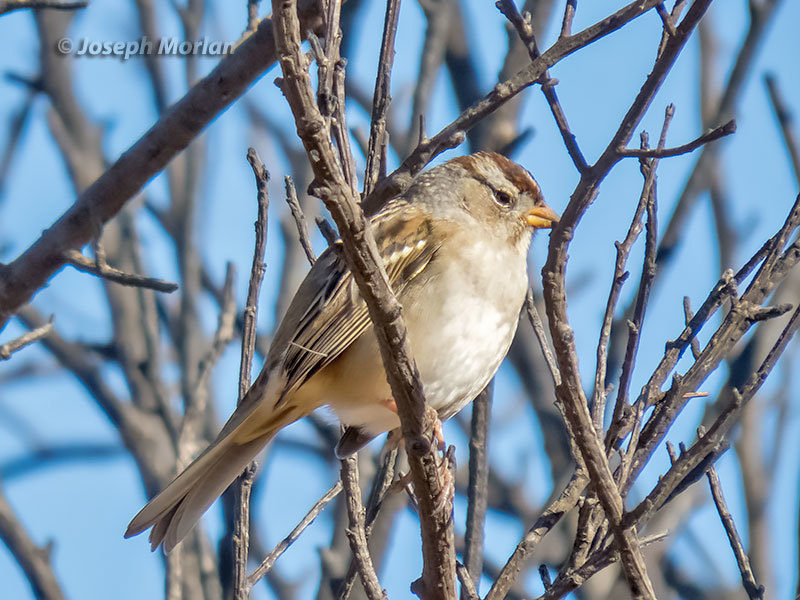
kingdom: Animalia
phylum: Chordata
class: Aves
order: Passeriformes
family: Passerellidae
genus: Zonotrichia
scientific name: Zonotrichia leucophrys
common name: White-crowned sparrow
